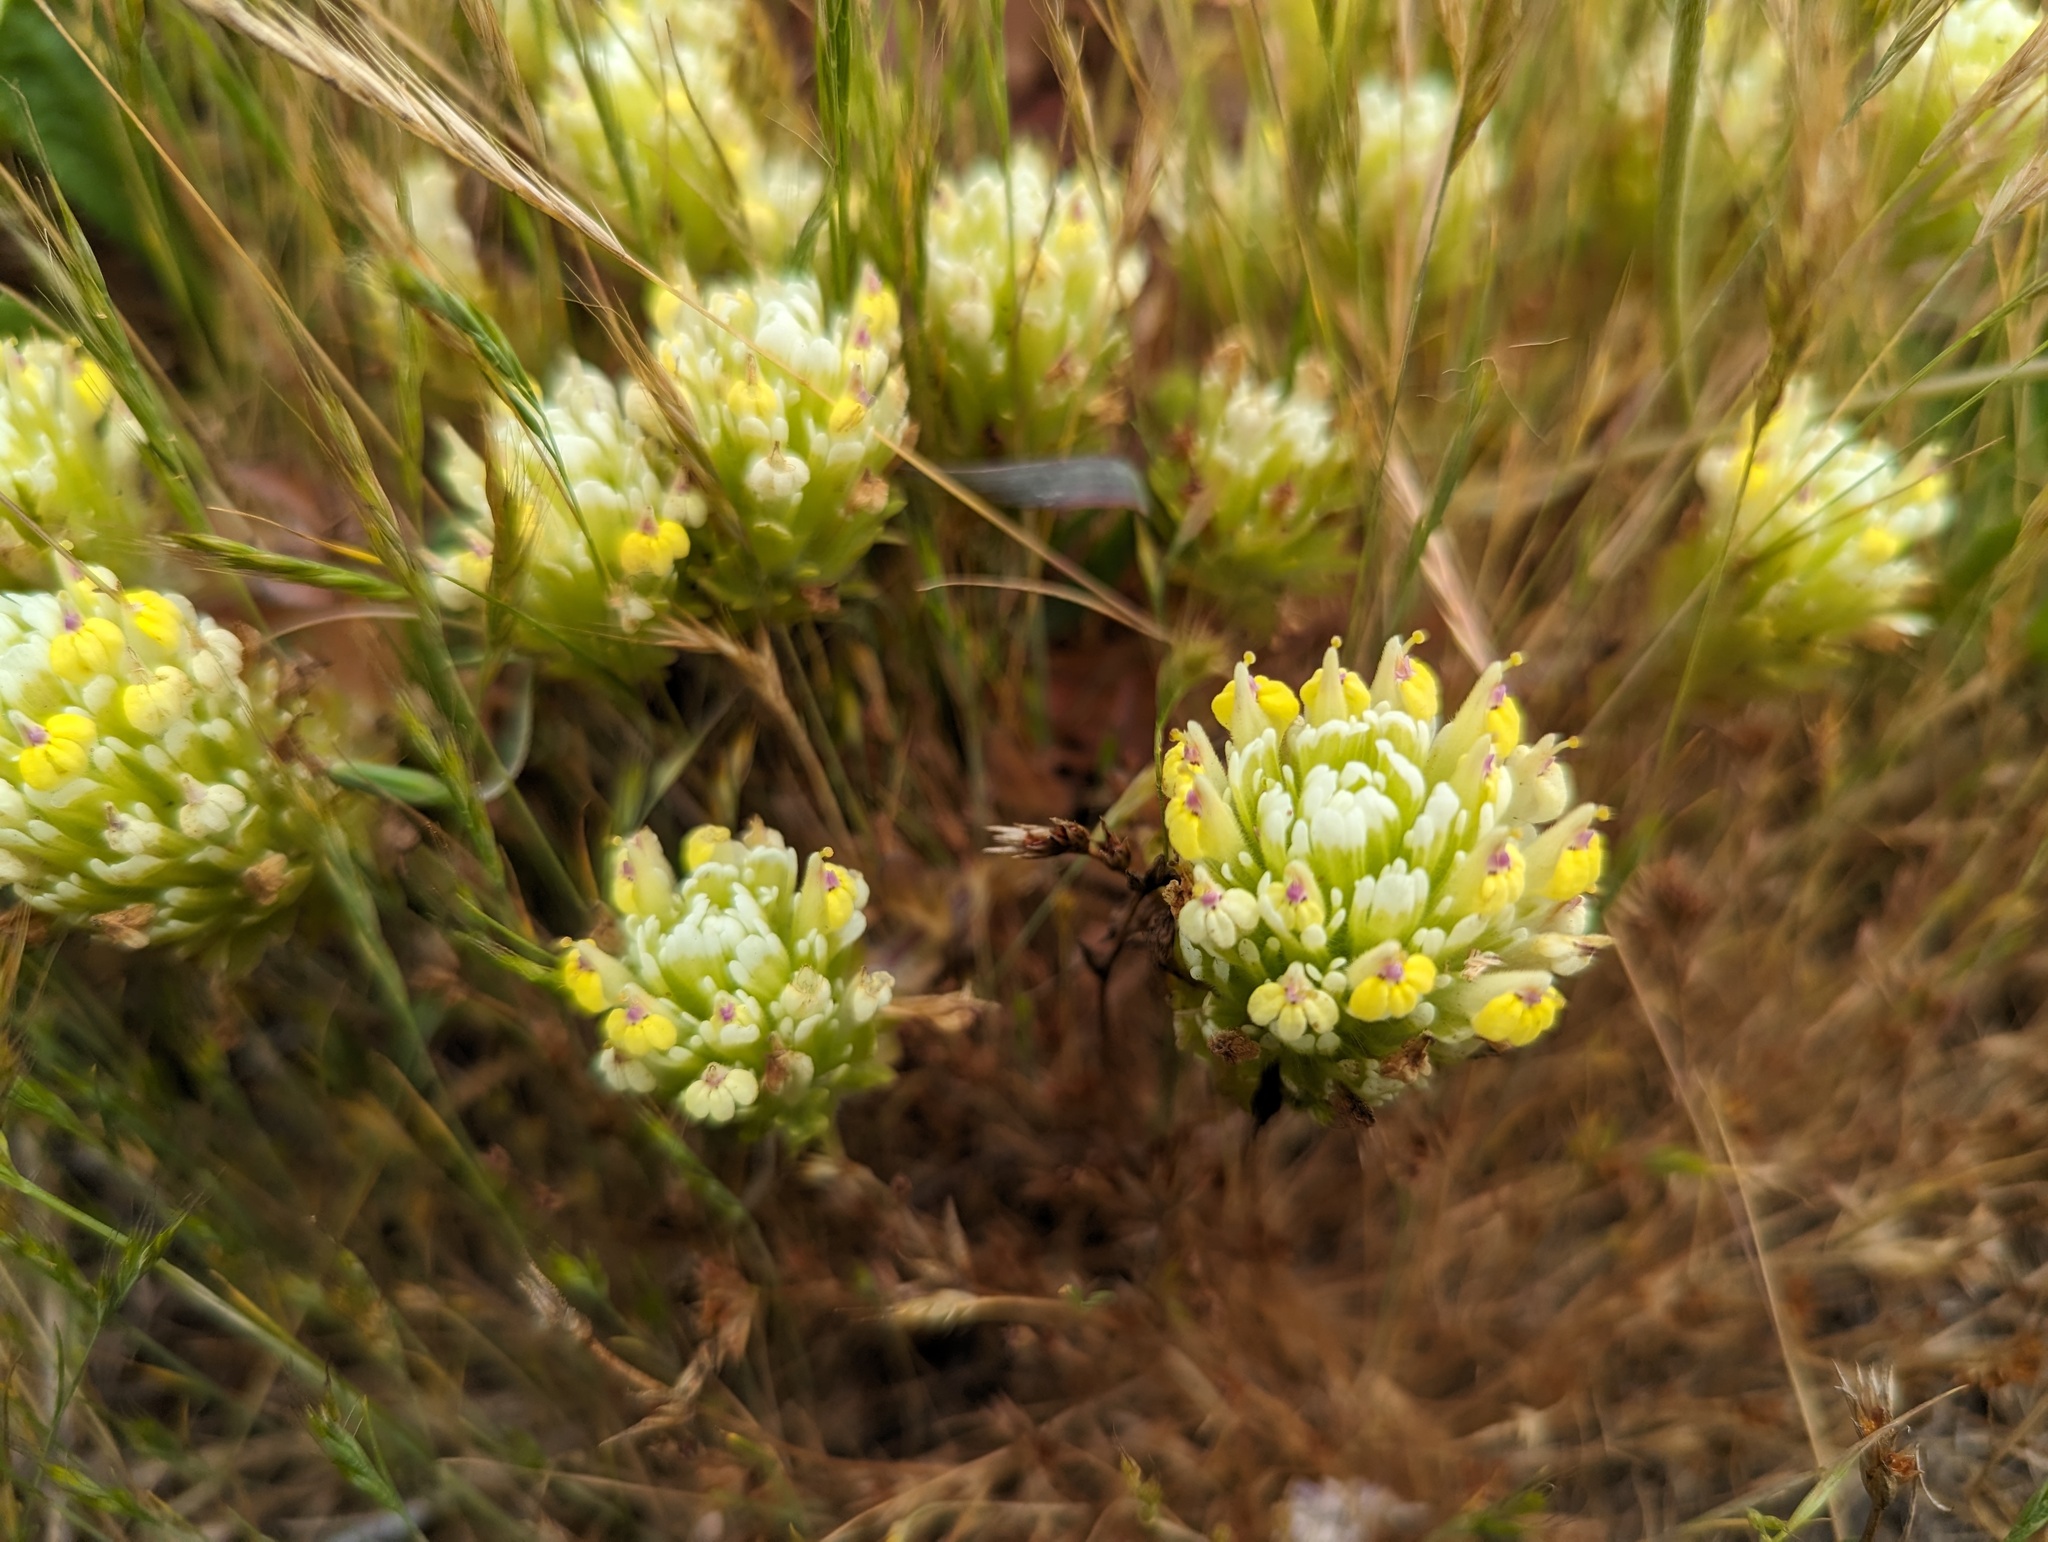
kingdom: Plantae
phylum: Tracheophyta
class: Magnoliopsida
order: Lamiales
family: Orobanchaceae
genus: Castilleja
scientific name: Castilleja ambigua
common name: Johnny-nip
